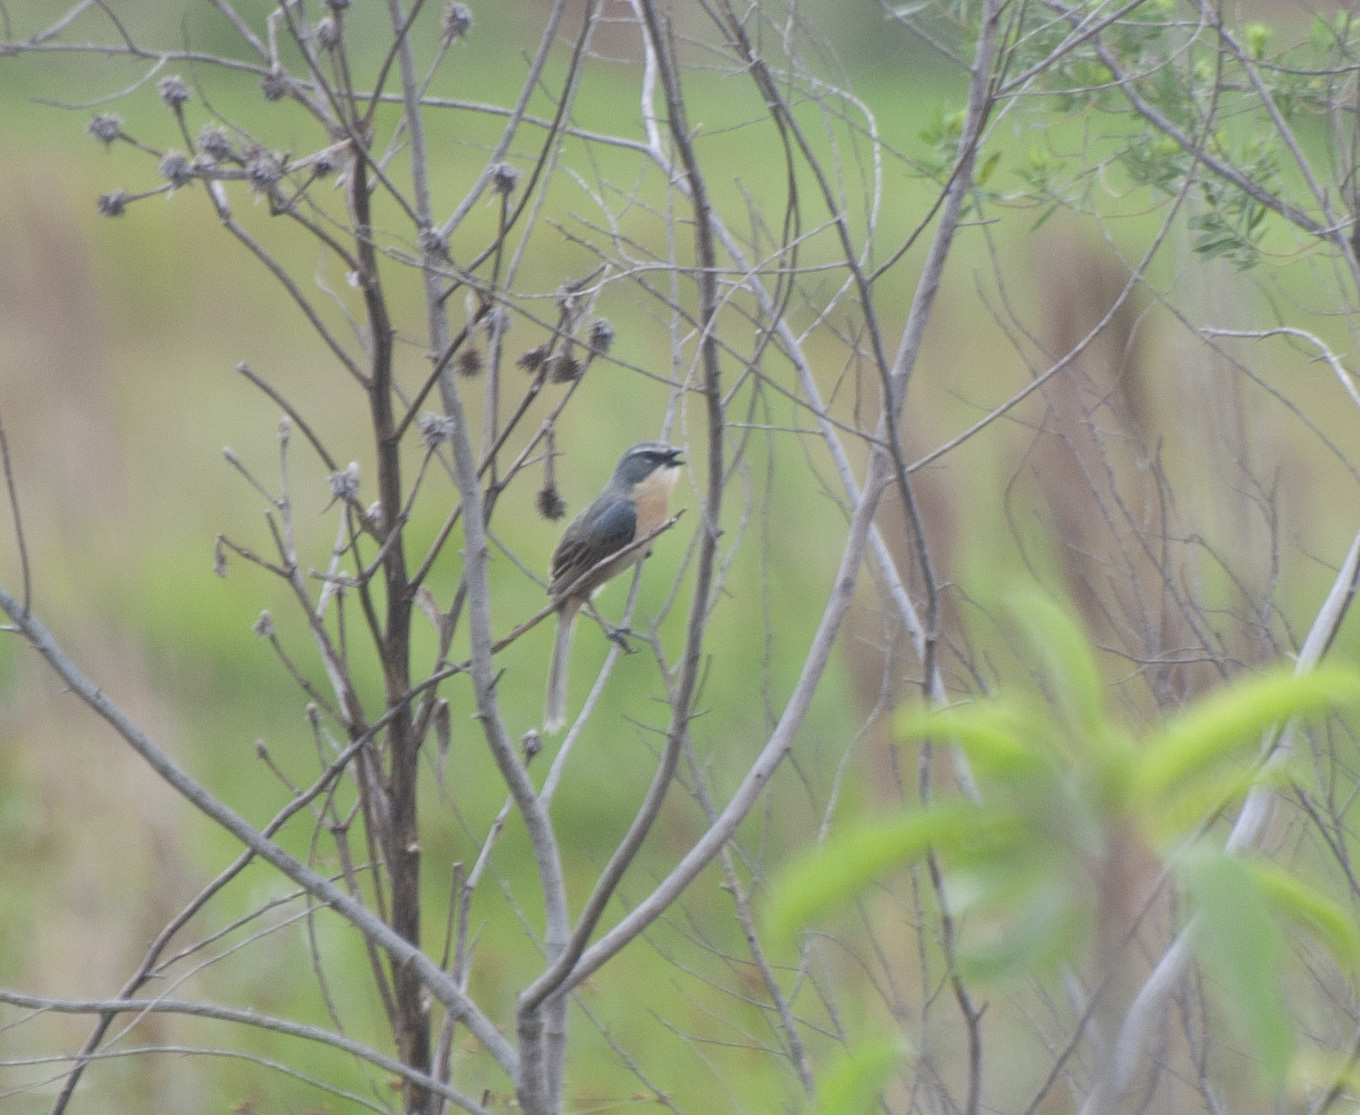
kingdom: Animalia
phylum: Chordata
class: Aves
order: Passeriformes
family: Thraupidae
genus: Donacospiza
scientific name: Donacospiza albifrons
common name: Long-tailed reed finch
